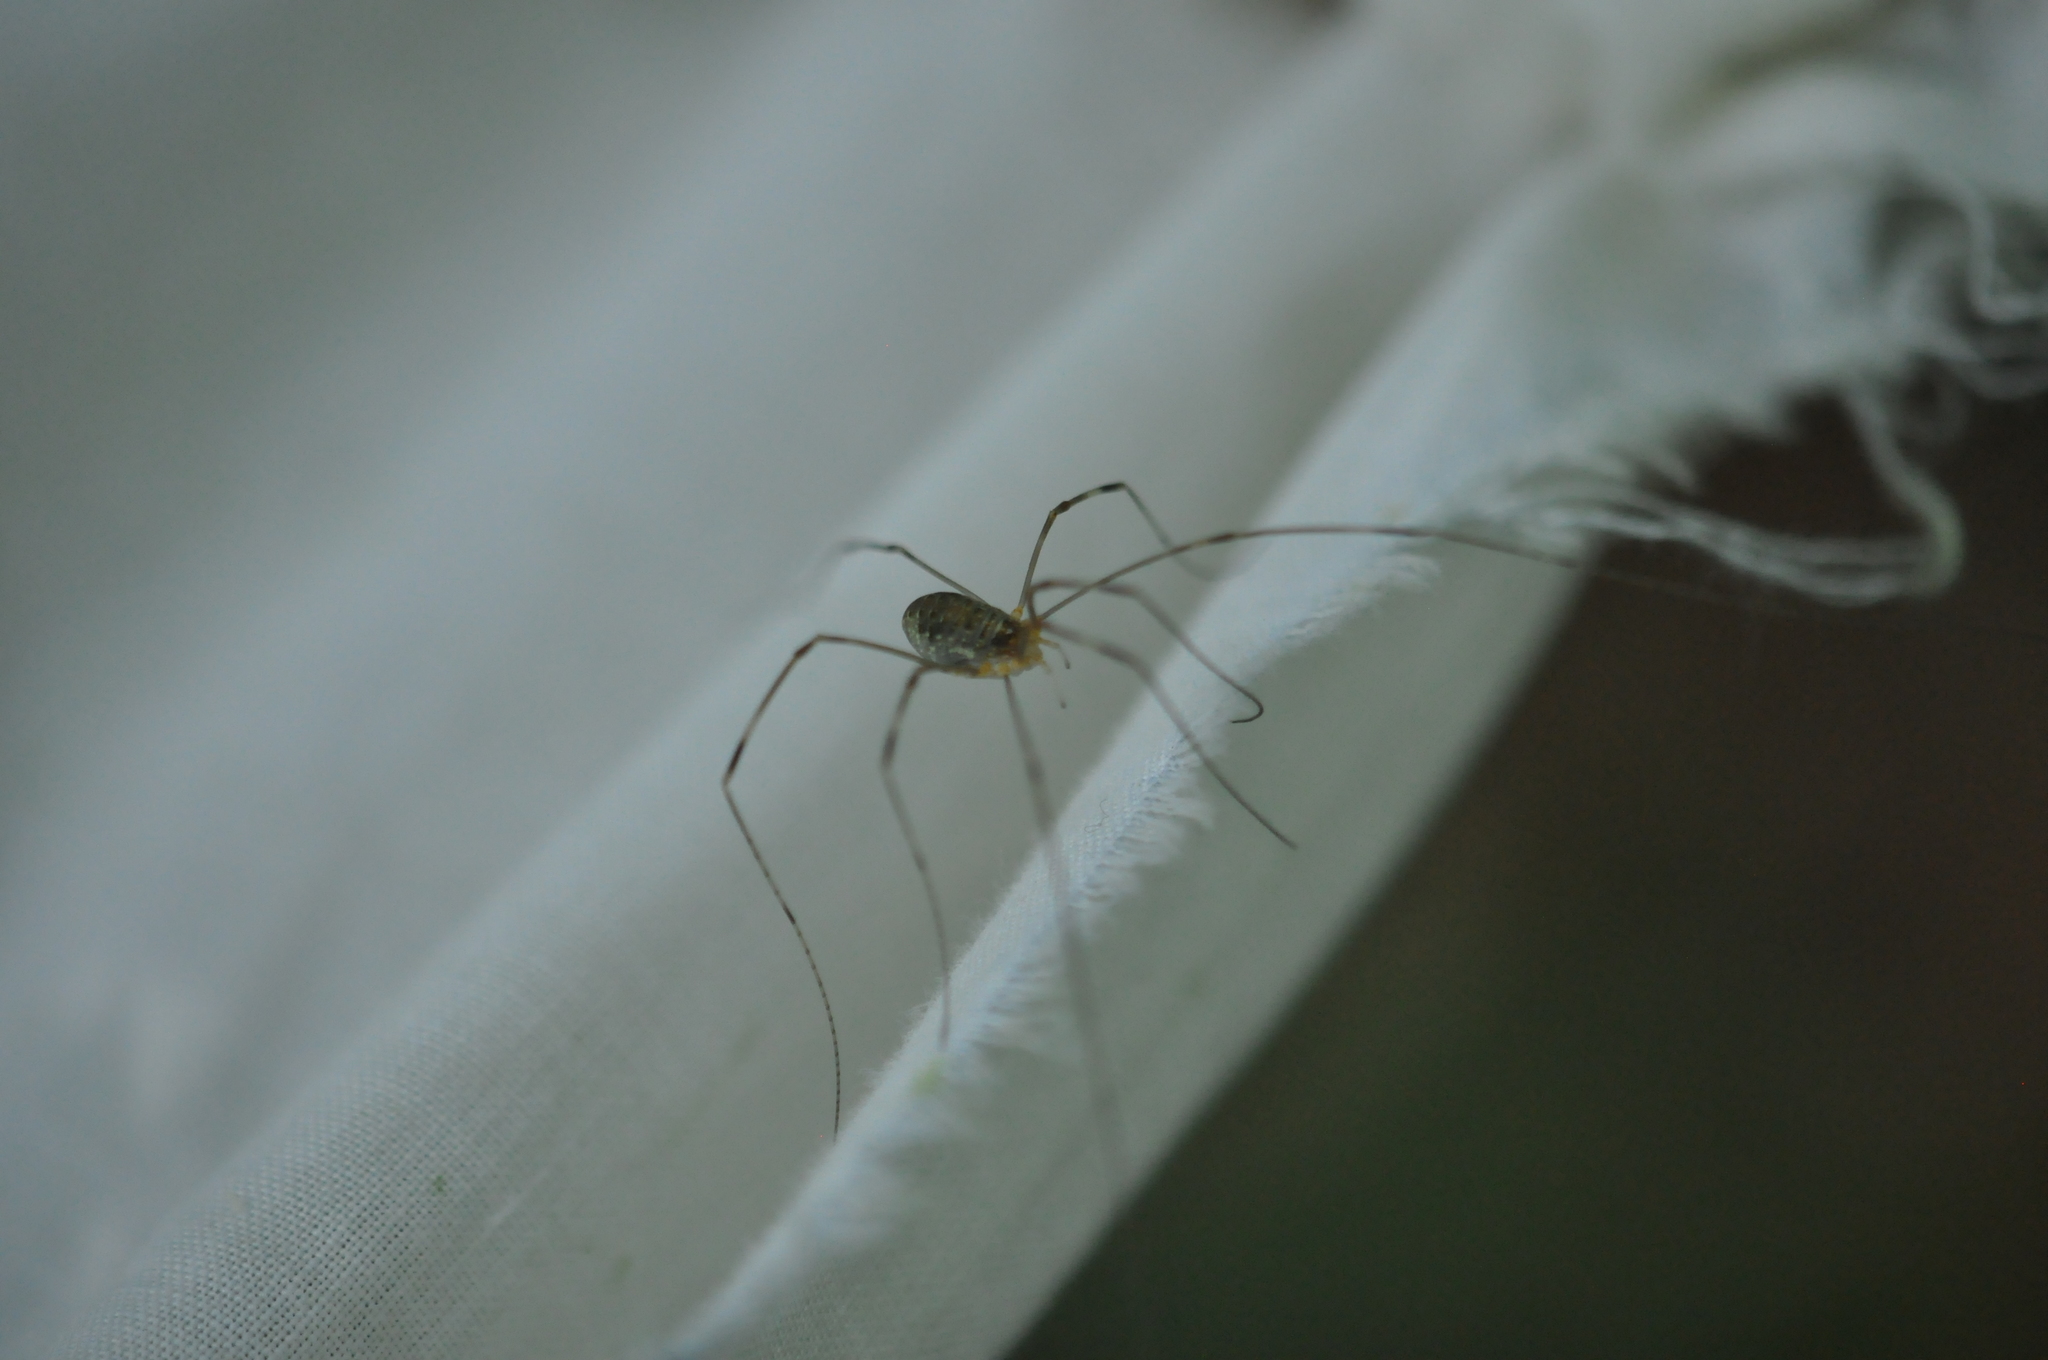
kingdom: Animalia
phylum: Arthropoda
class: Arachnida
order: Opiliones
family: Phalangiidae
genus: Opilio
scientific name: Opilio canestrinii
